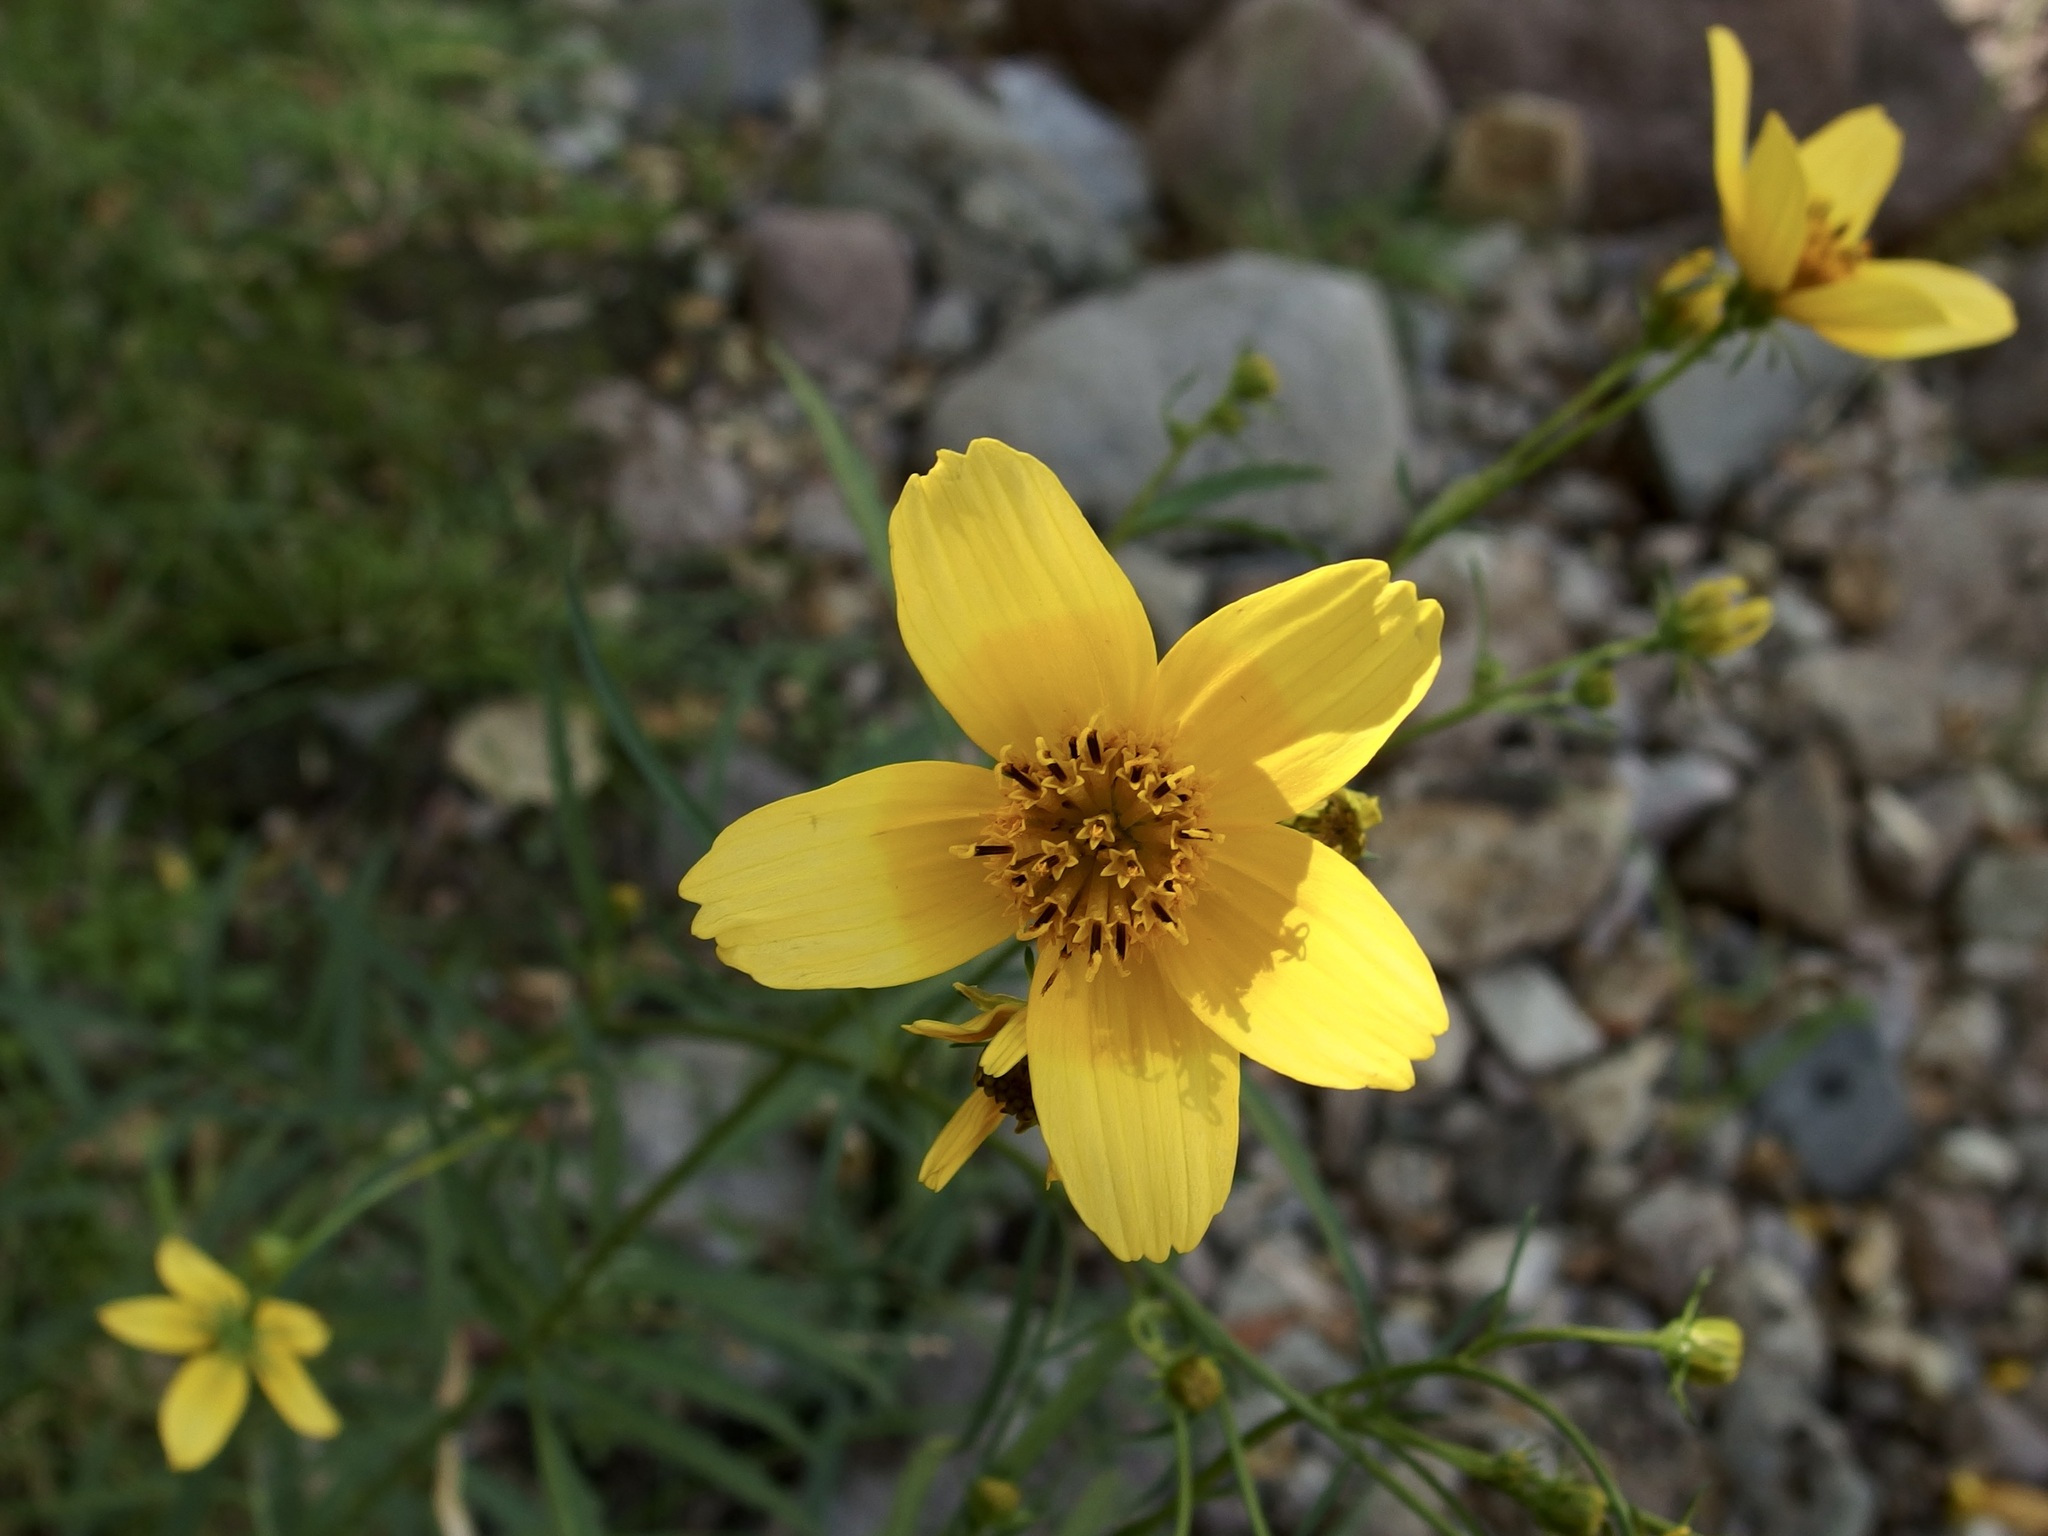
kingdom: Plantae
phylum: Tracheophyta
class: Magnoliopsida
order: Asterales
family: Asteraceae
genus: Bidens
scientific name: Bidens aurea
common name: Arizona beggar-ticks
